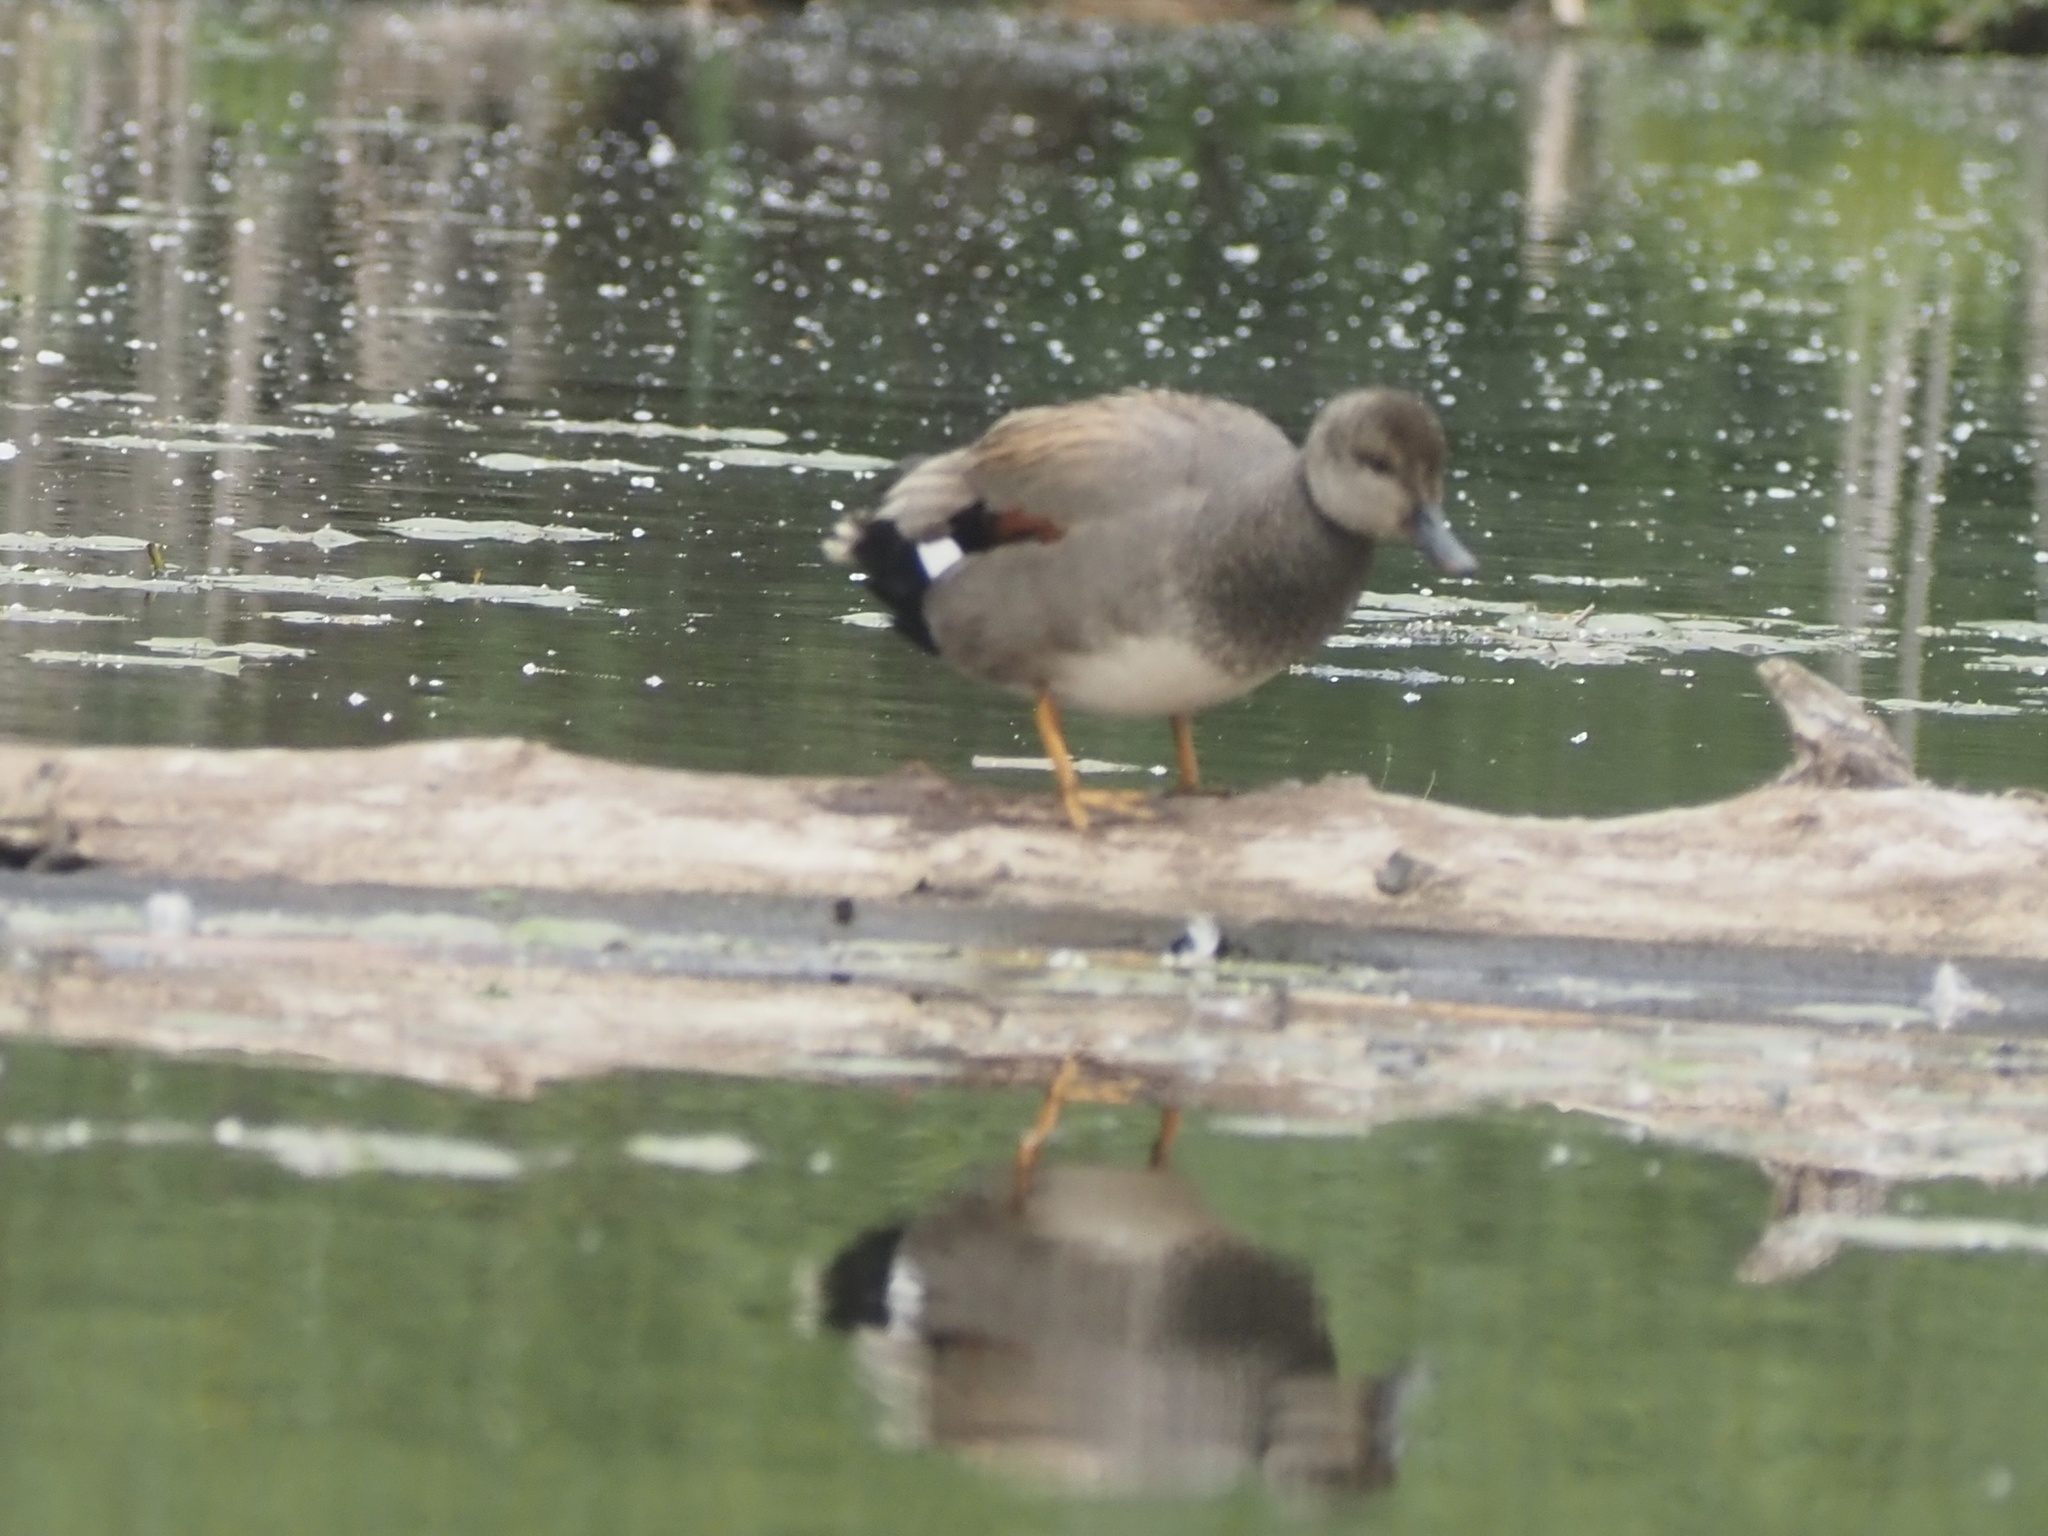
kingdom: Animalia
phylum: Chordata
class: Aves
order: Anseriformes
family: Anatidae
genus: Mareca
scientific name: Mareca strepera
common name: Gadwall
